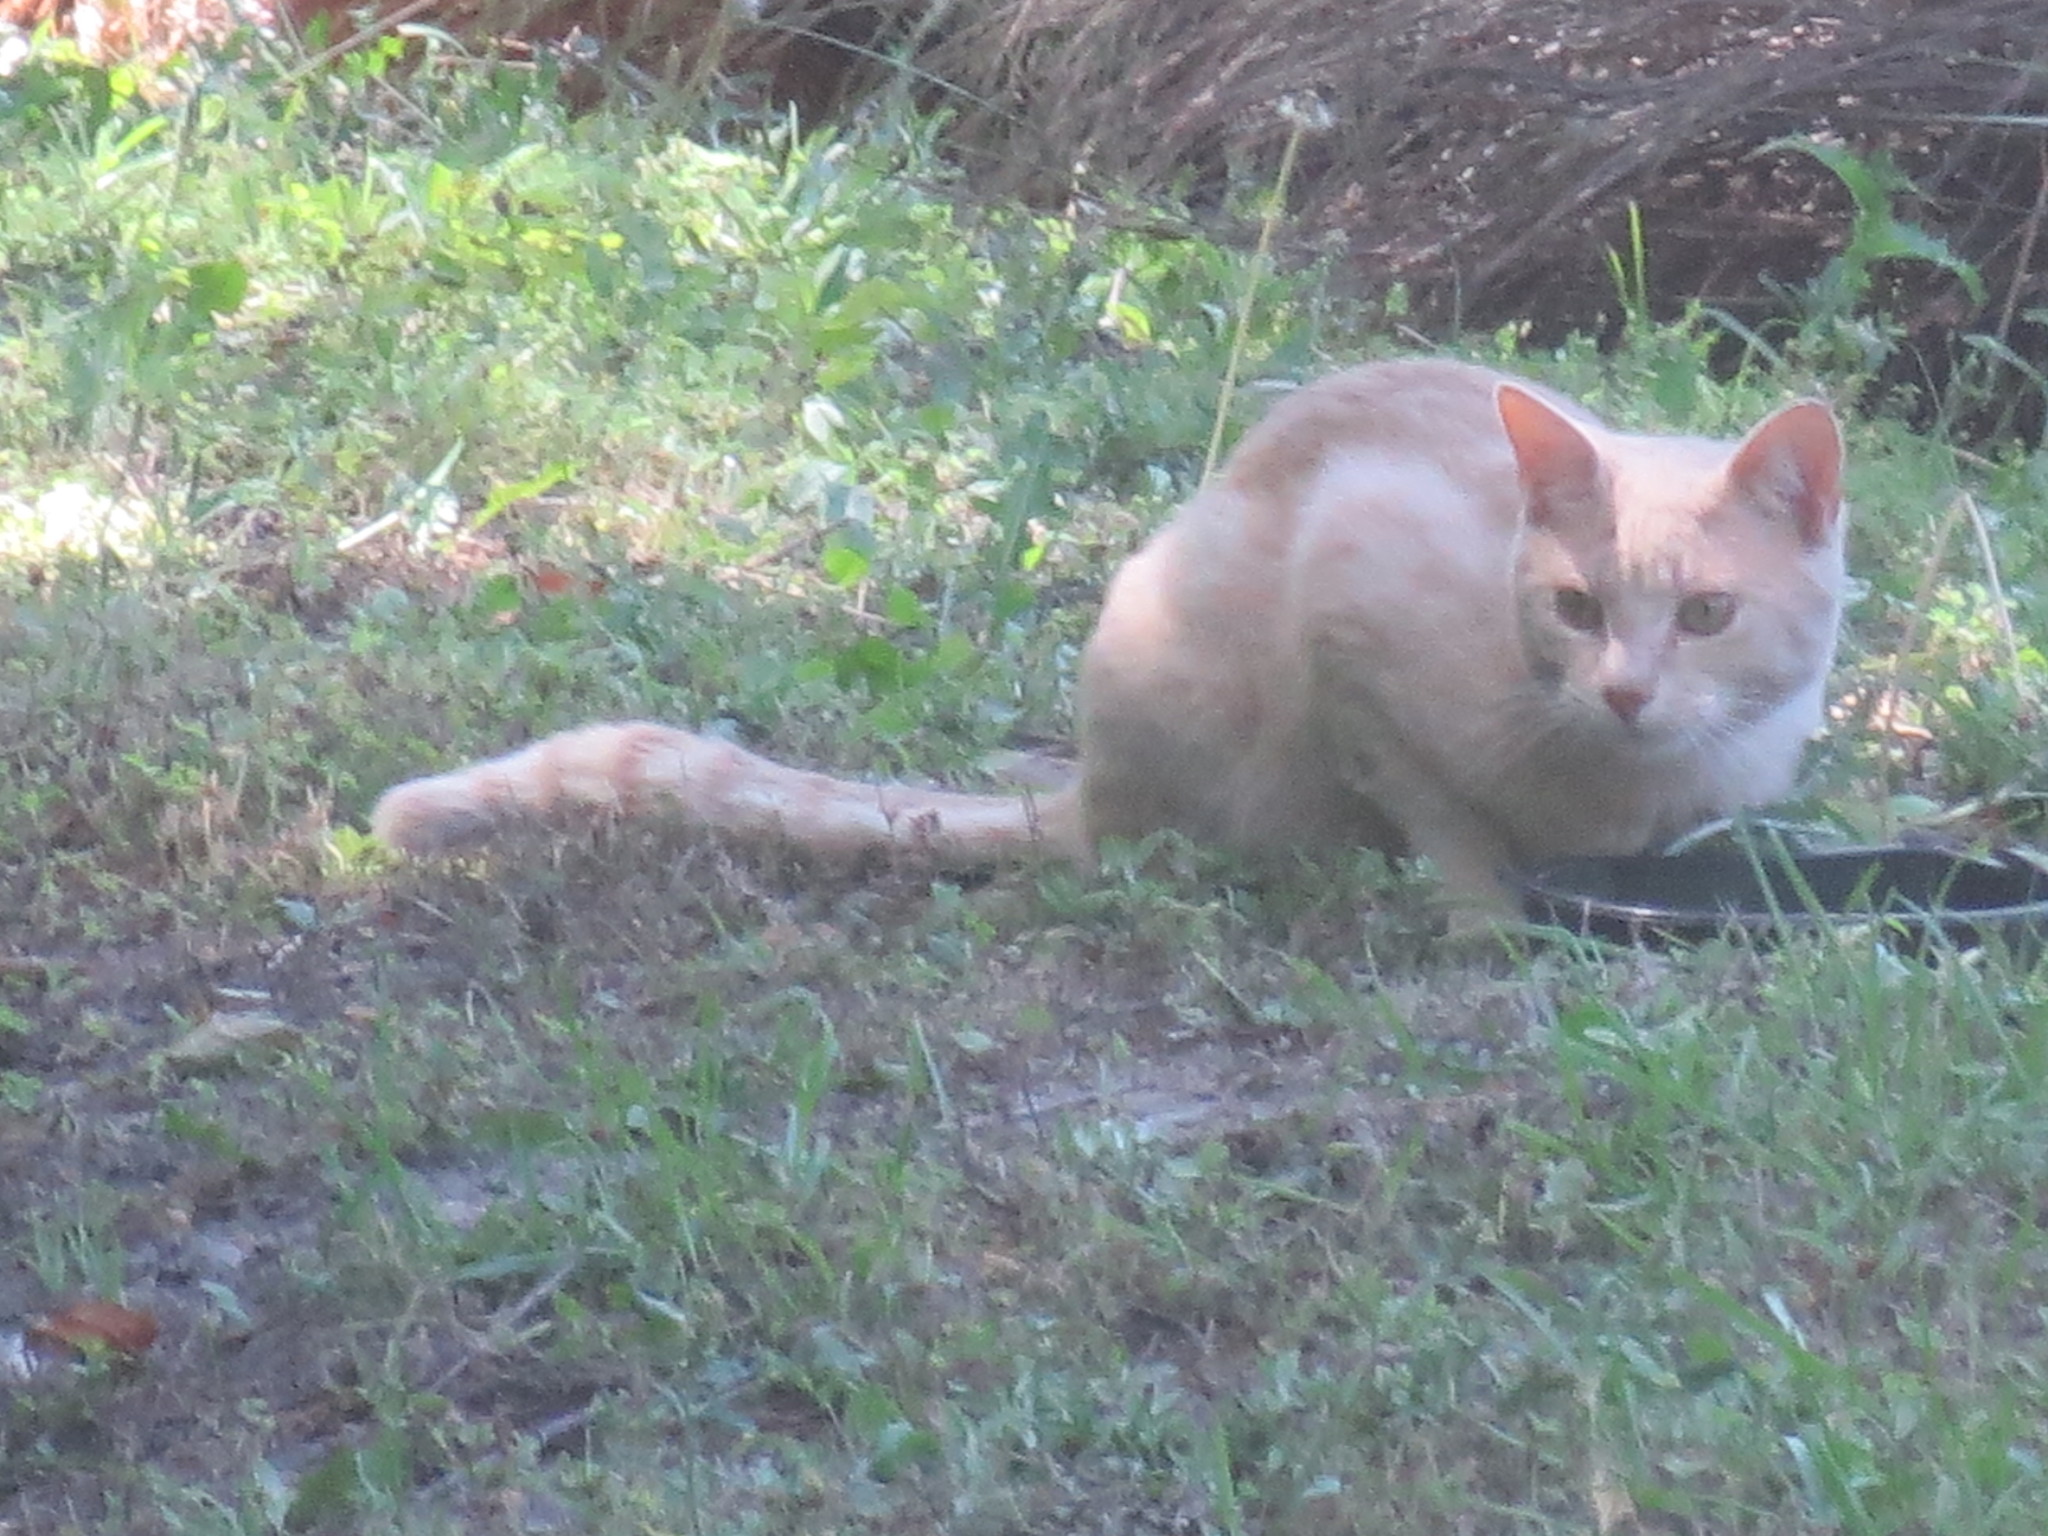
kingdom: Animalia
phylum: Chordata
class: Mammalia
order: Carnivora
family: Felidae
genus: Felis
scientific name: Felis catus
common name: Domestic cat
